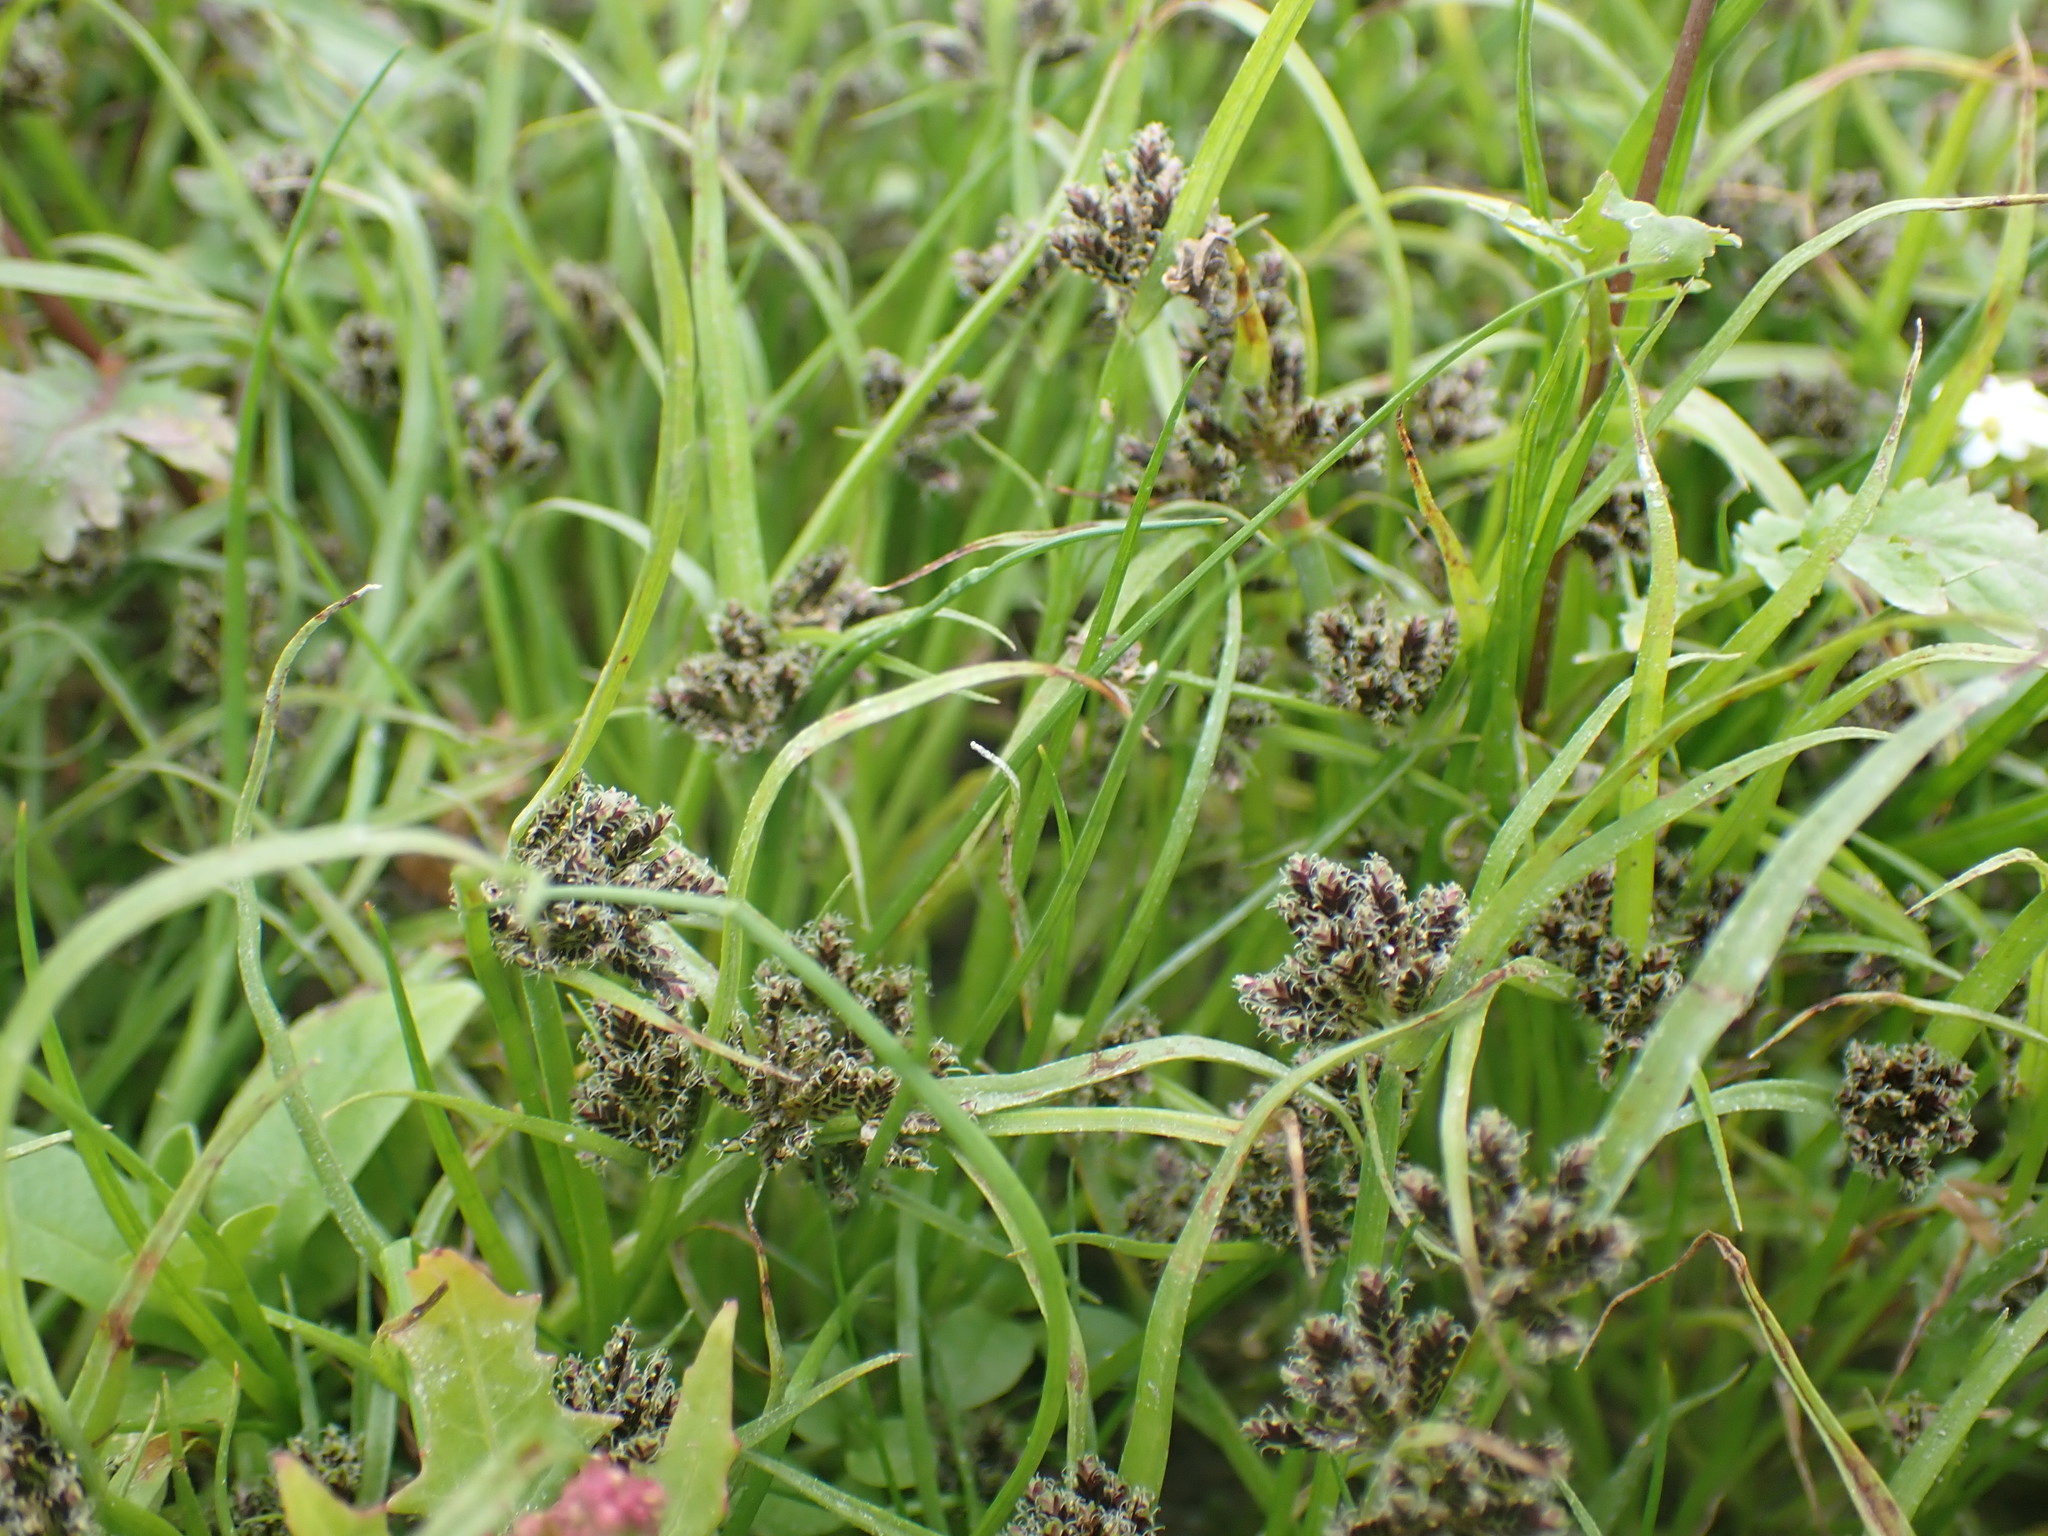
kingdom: Plantae
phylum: Tracheophyta
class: Liliopsida
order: Poales
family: Cyperaceae
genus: Cyperus
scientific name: Cyperus fuscus
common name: Brown galingale
